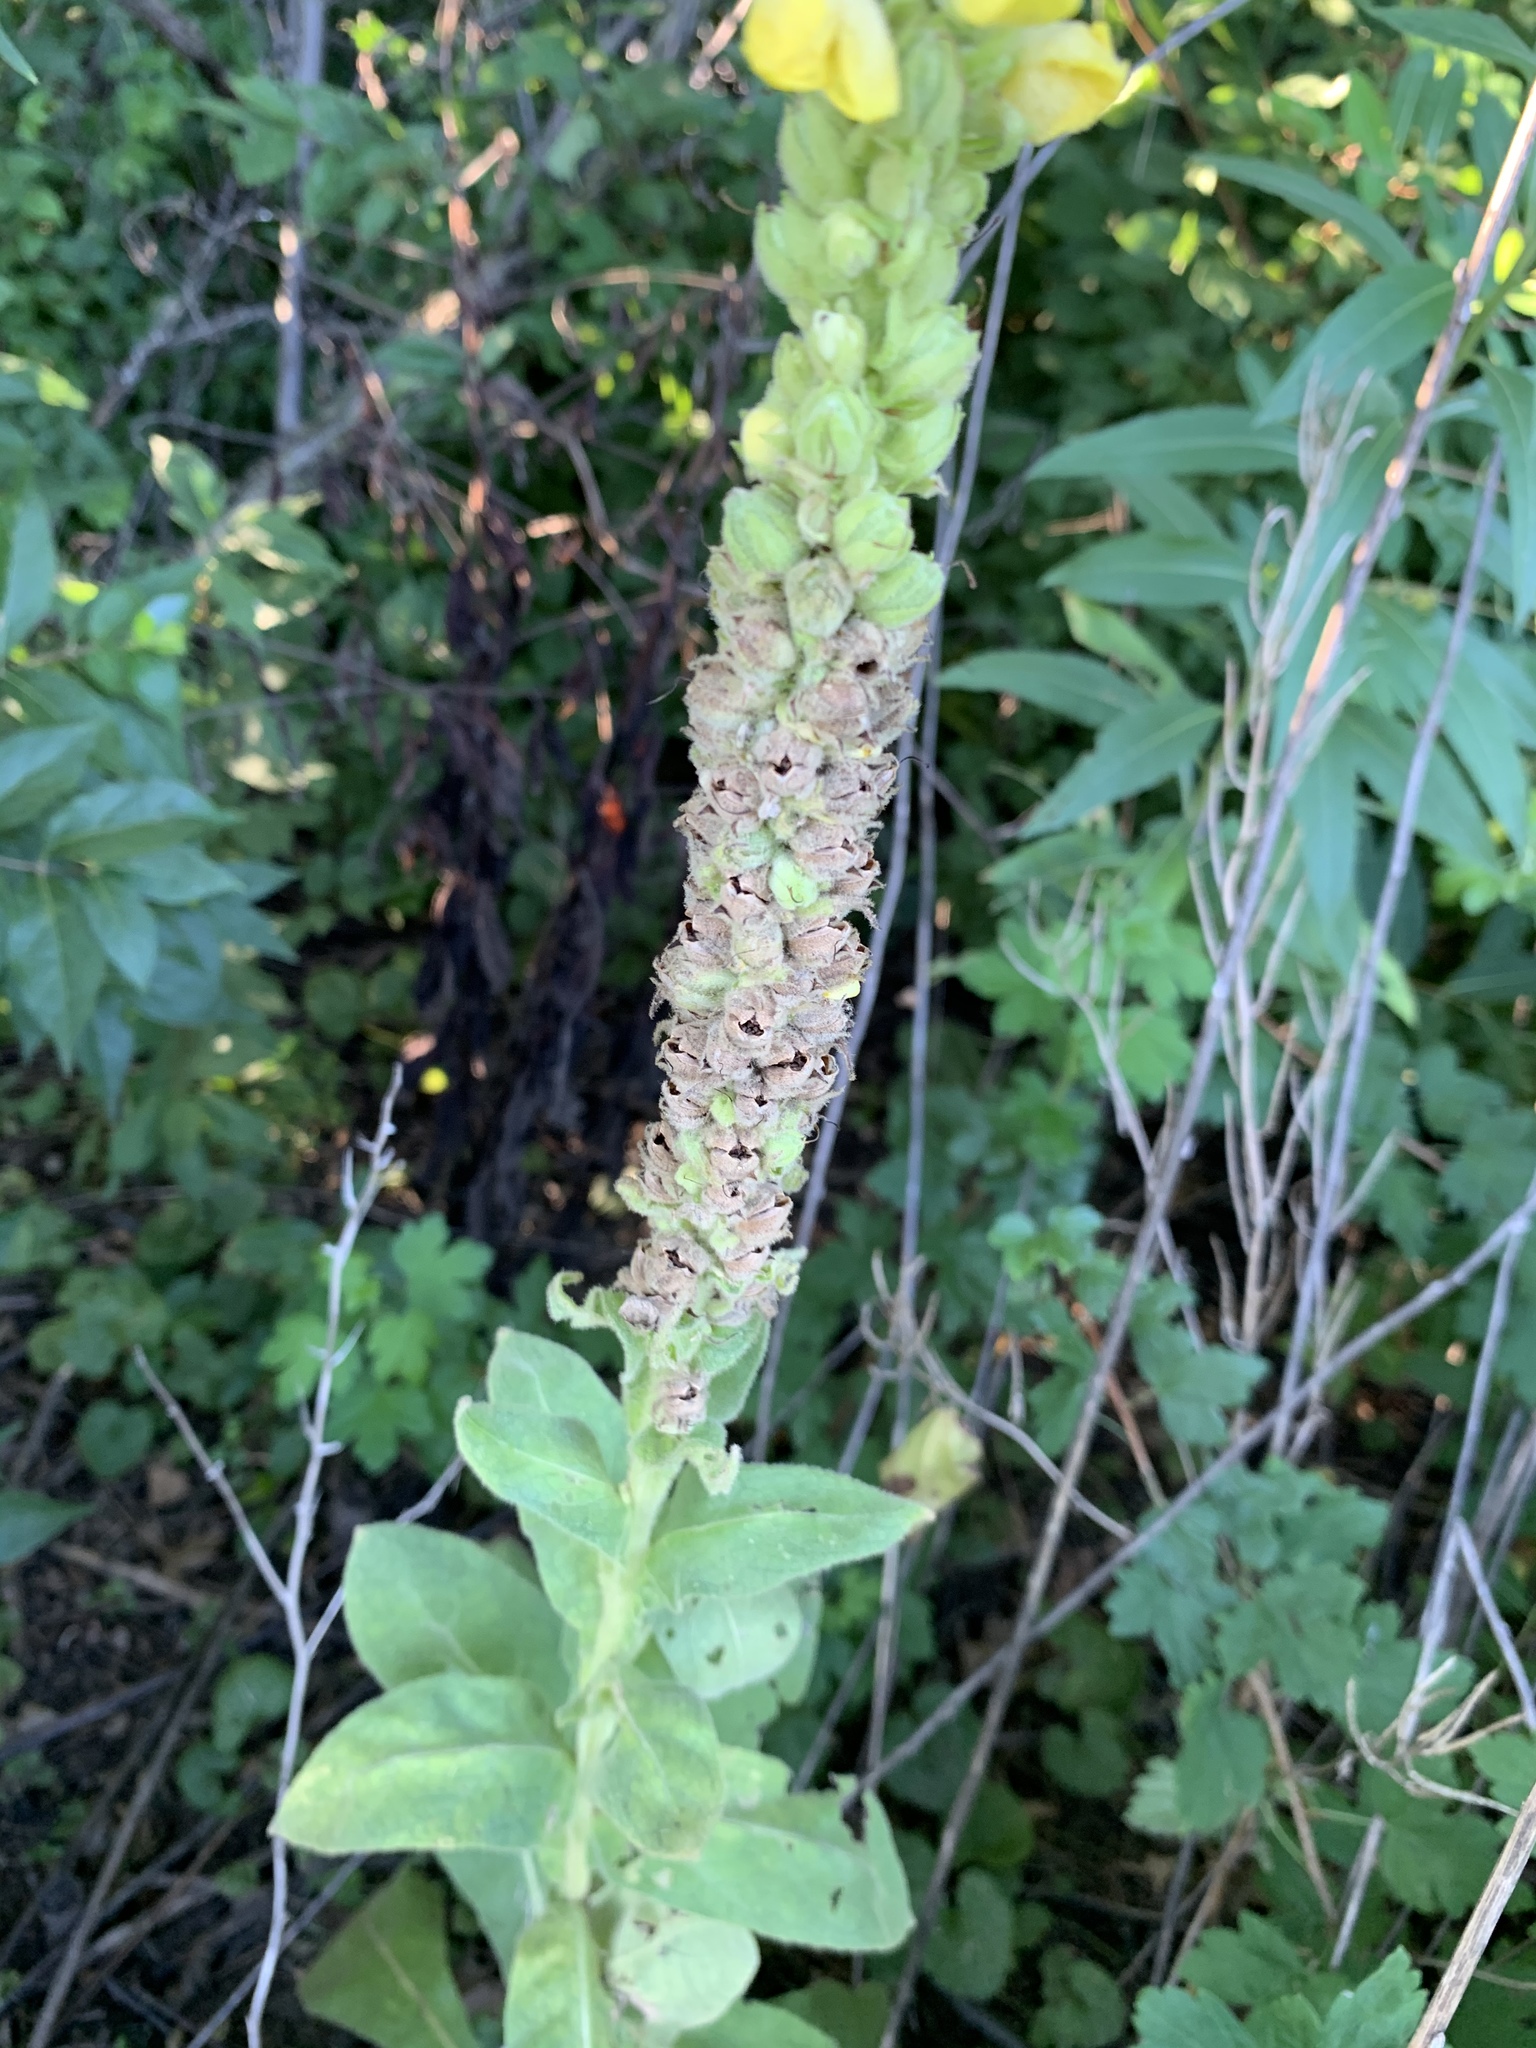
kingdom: Plantae
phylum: Tracheophyta
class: Magnoliopsida
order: Lamiales
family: Scrophulariaceae
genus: Verbascum
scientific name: Verbascum thapsus
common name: Common mullein
